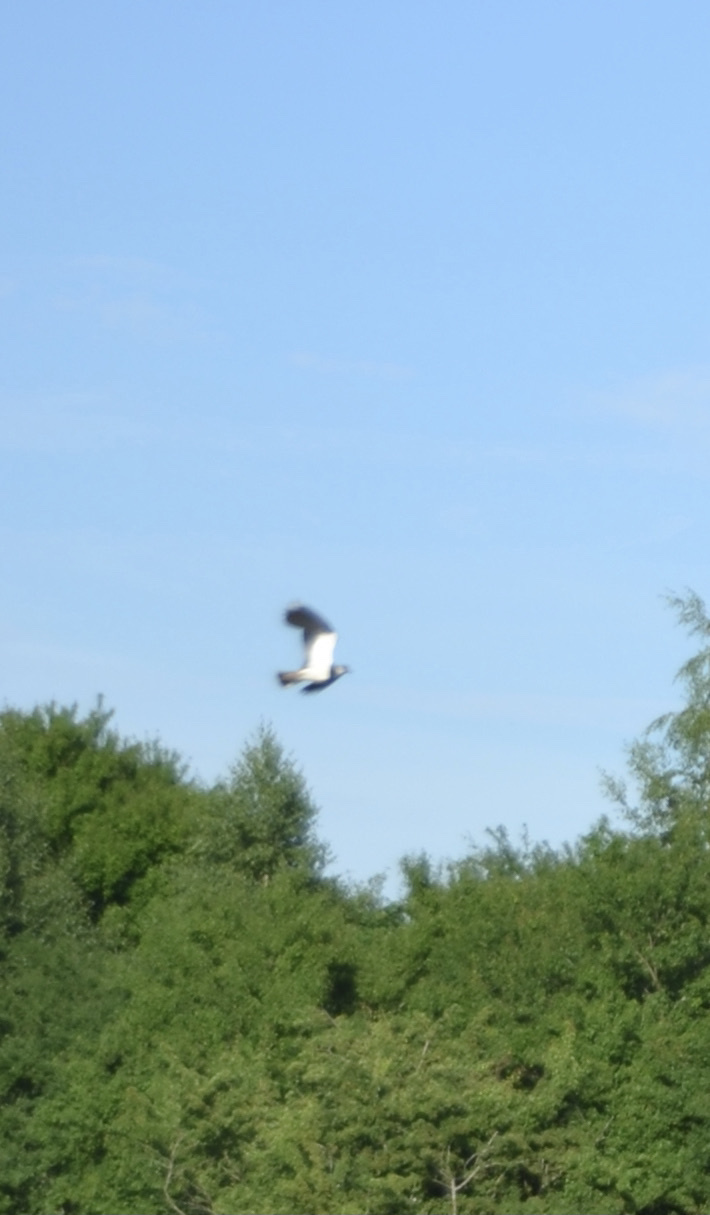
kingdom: Animalia
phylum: Chordata
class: Aves
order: Charadriiformes
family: Charadriidae
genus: Vanellus
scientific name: Vanellus vanellus
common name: Northern lapwing
